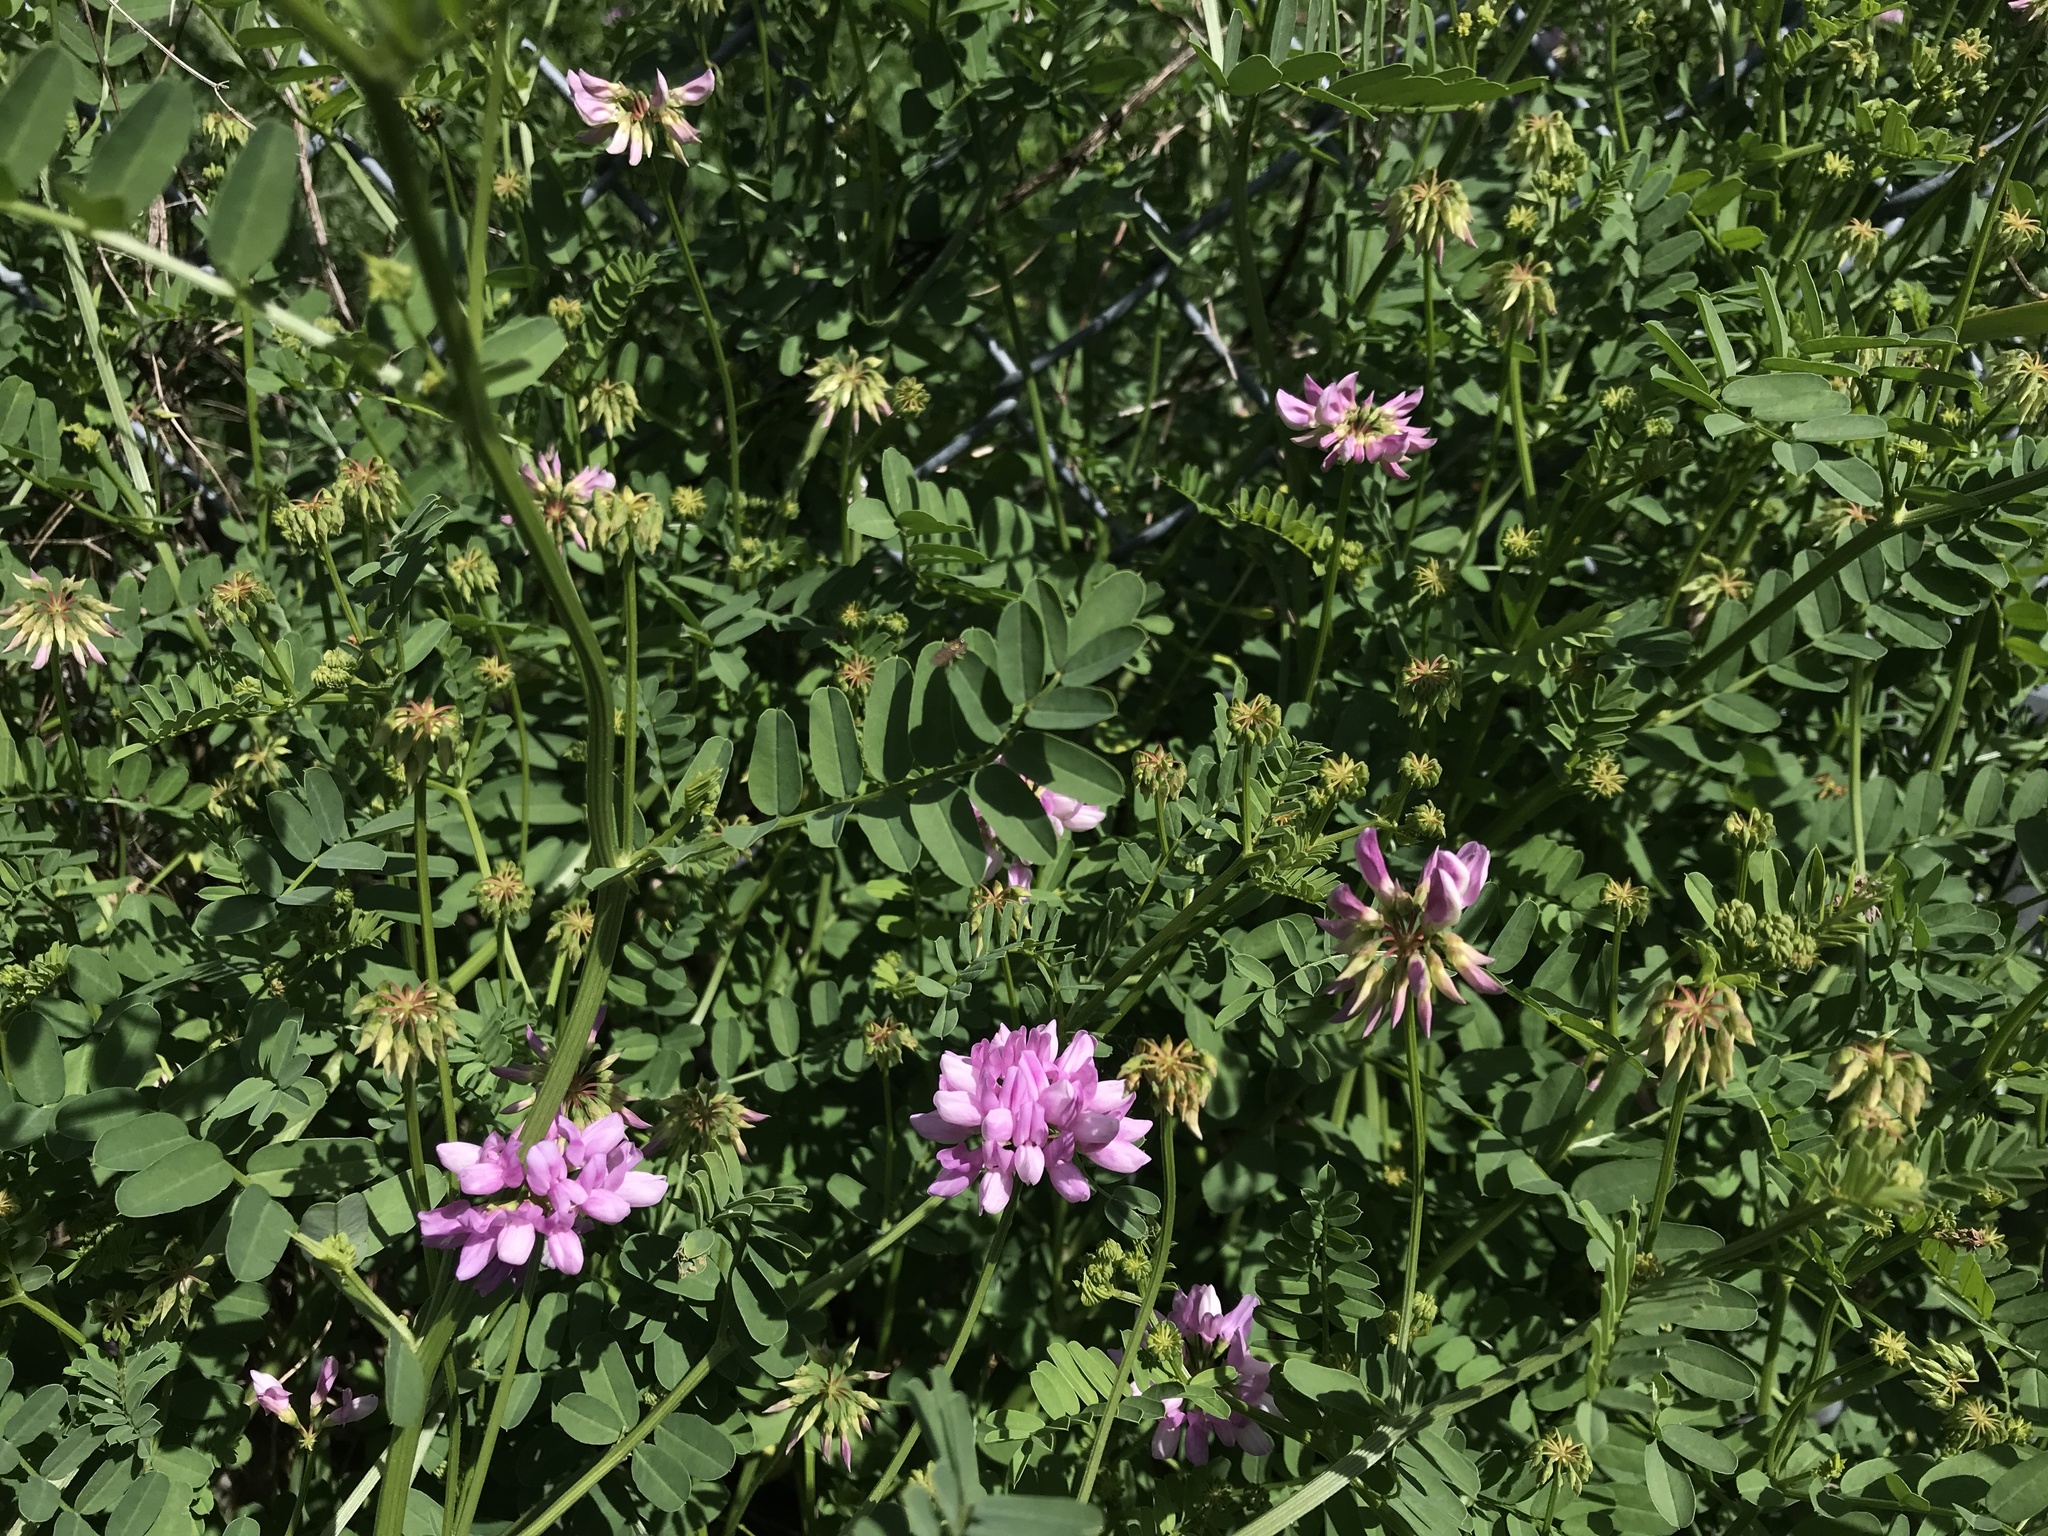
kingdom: Plantae
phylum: Tracheophyta
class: Magnoliopsida
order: Fabales
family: Fabaceae
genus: Coronilla
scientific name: Coronilla varia
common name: Crownvetch
